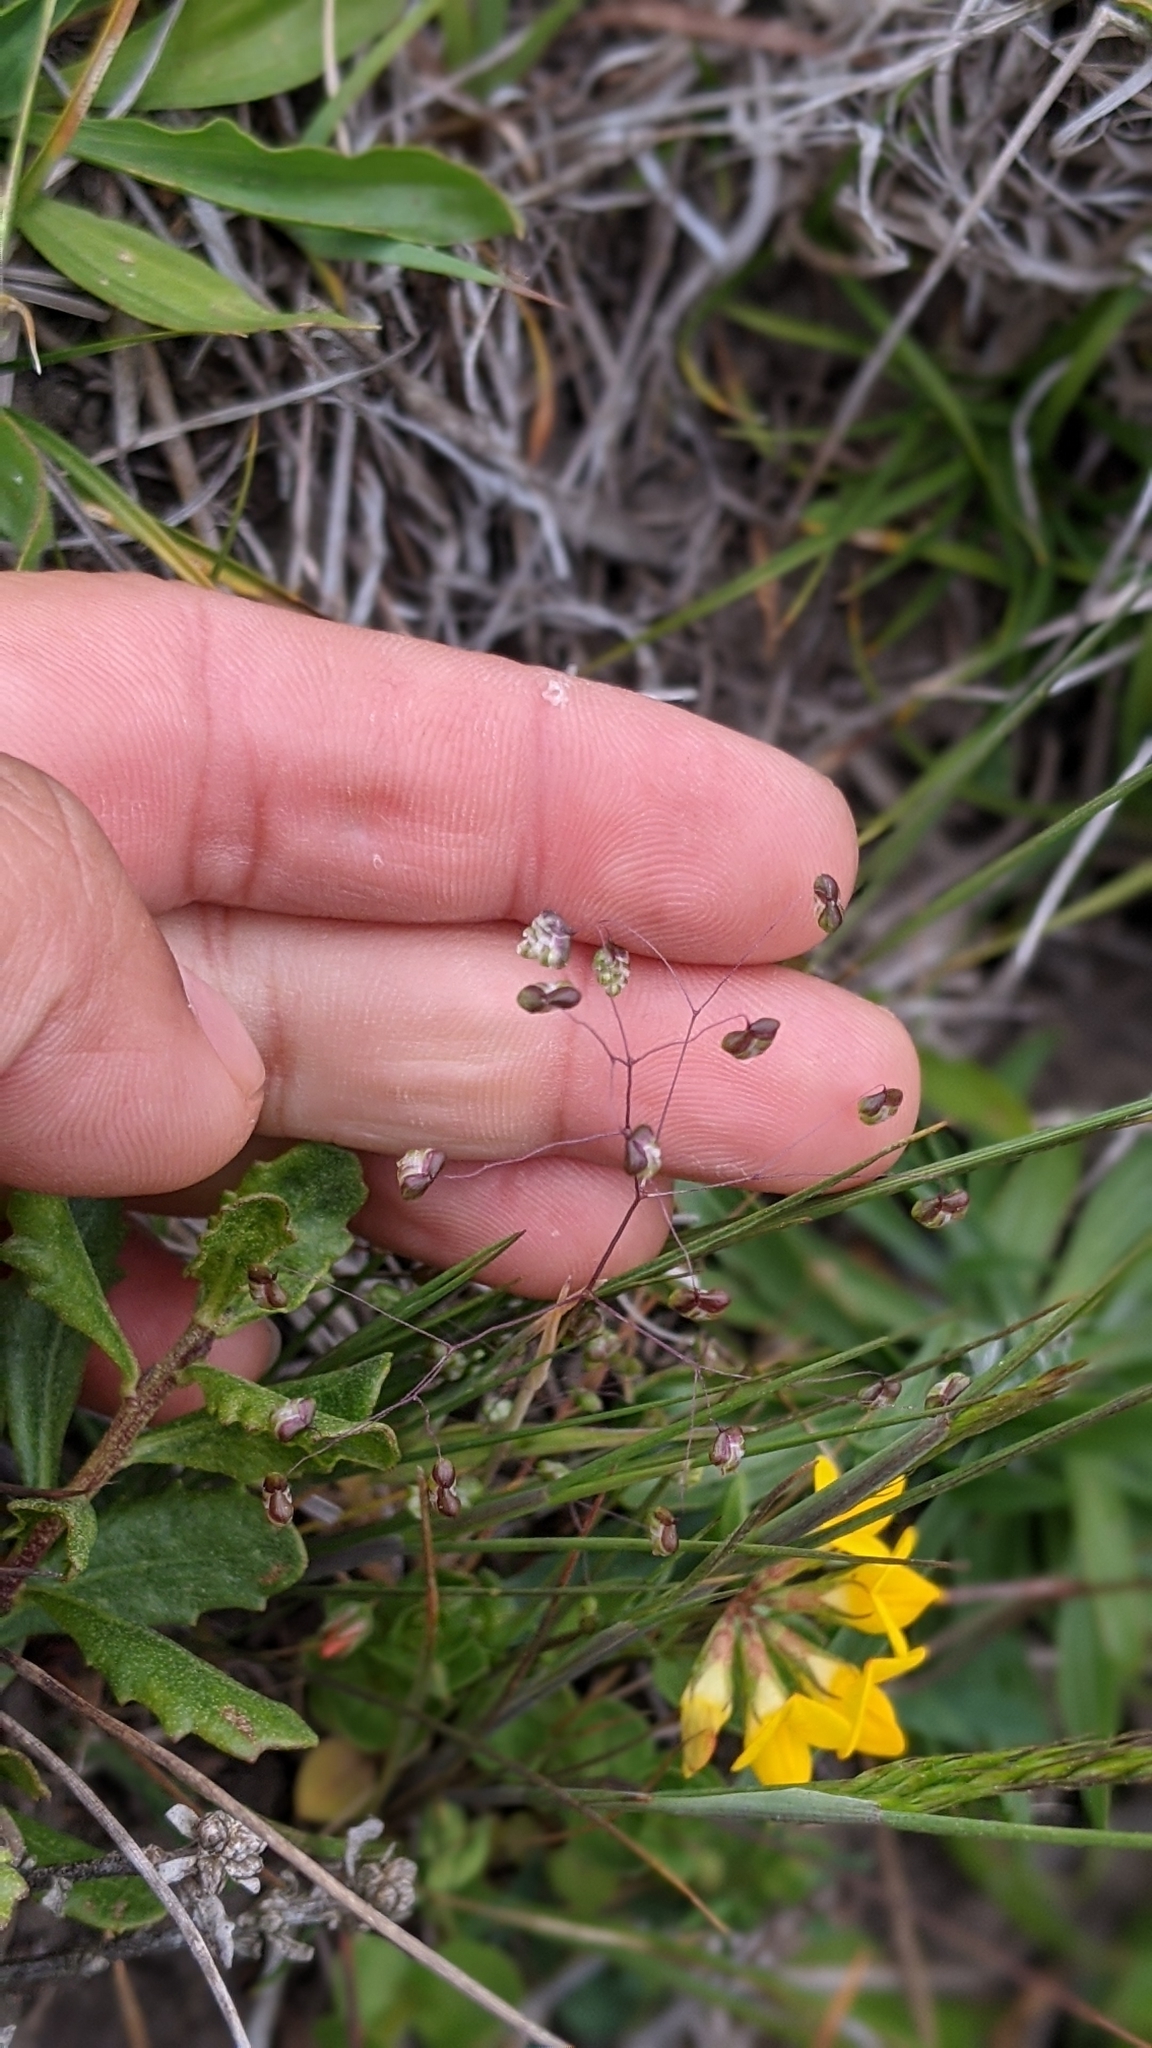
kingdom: Plantae
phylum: Tracheophyta
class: Liliopsida
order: Poales
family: Poaceae
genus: Briza
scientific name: Briza minor
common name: Lesser quaking-grass
